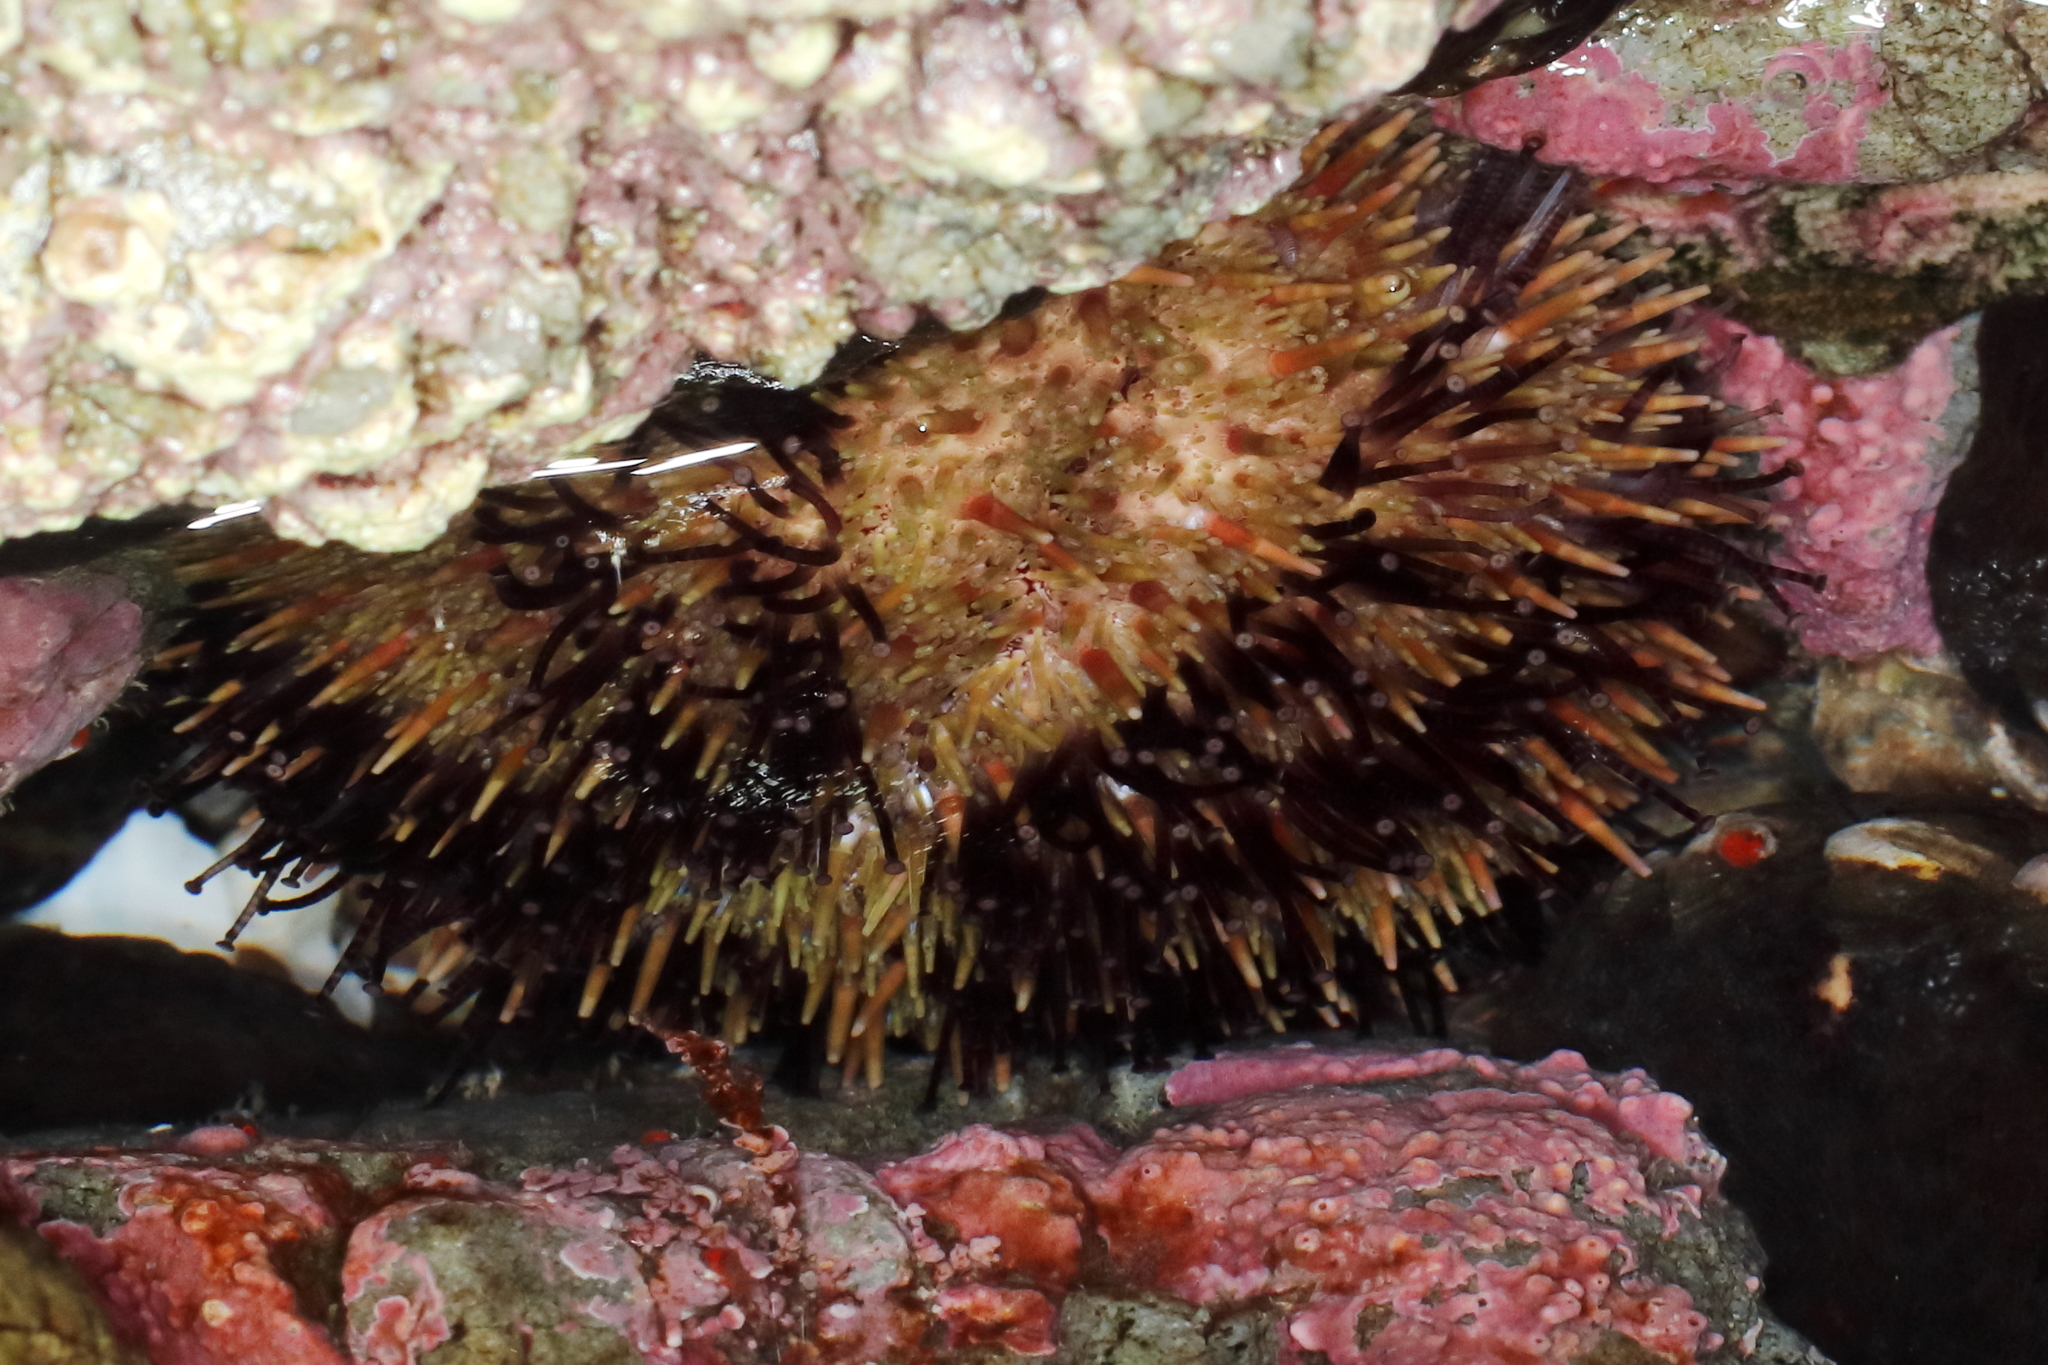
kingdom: Animalia
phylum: Echinodermata
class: Echinoidea
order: Camarodonta
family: Strongylocentrotidae
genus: Strongylocentrotus
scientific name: Strongylocentrotus droebachiensis
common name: Northern sea urchin
